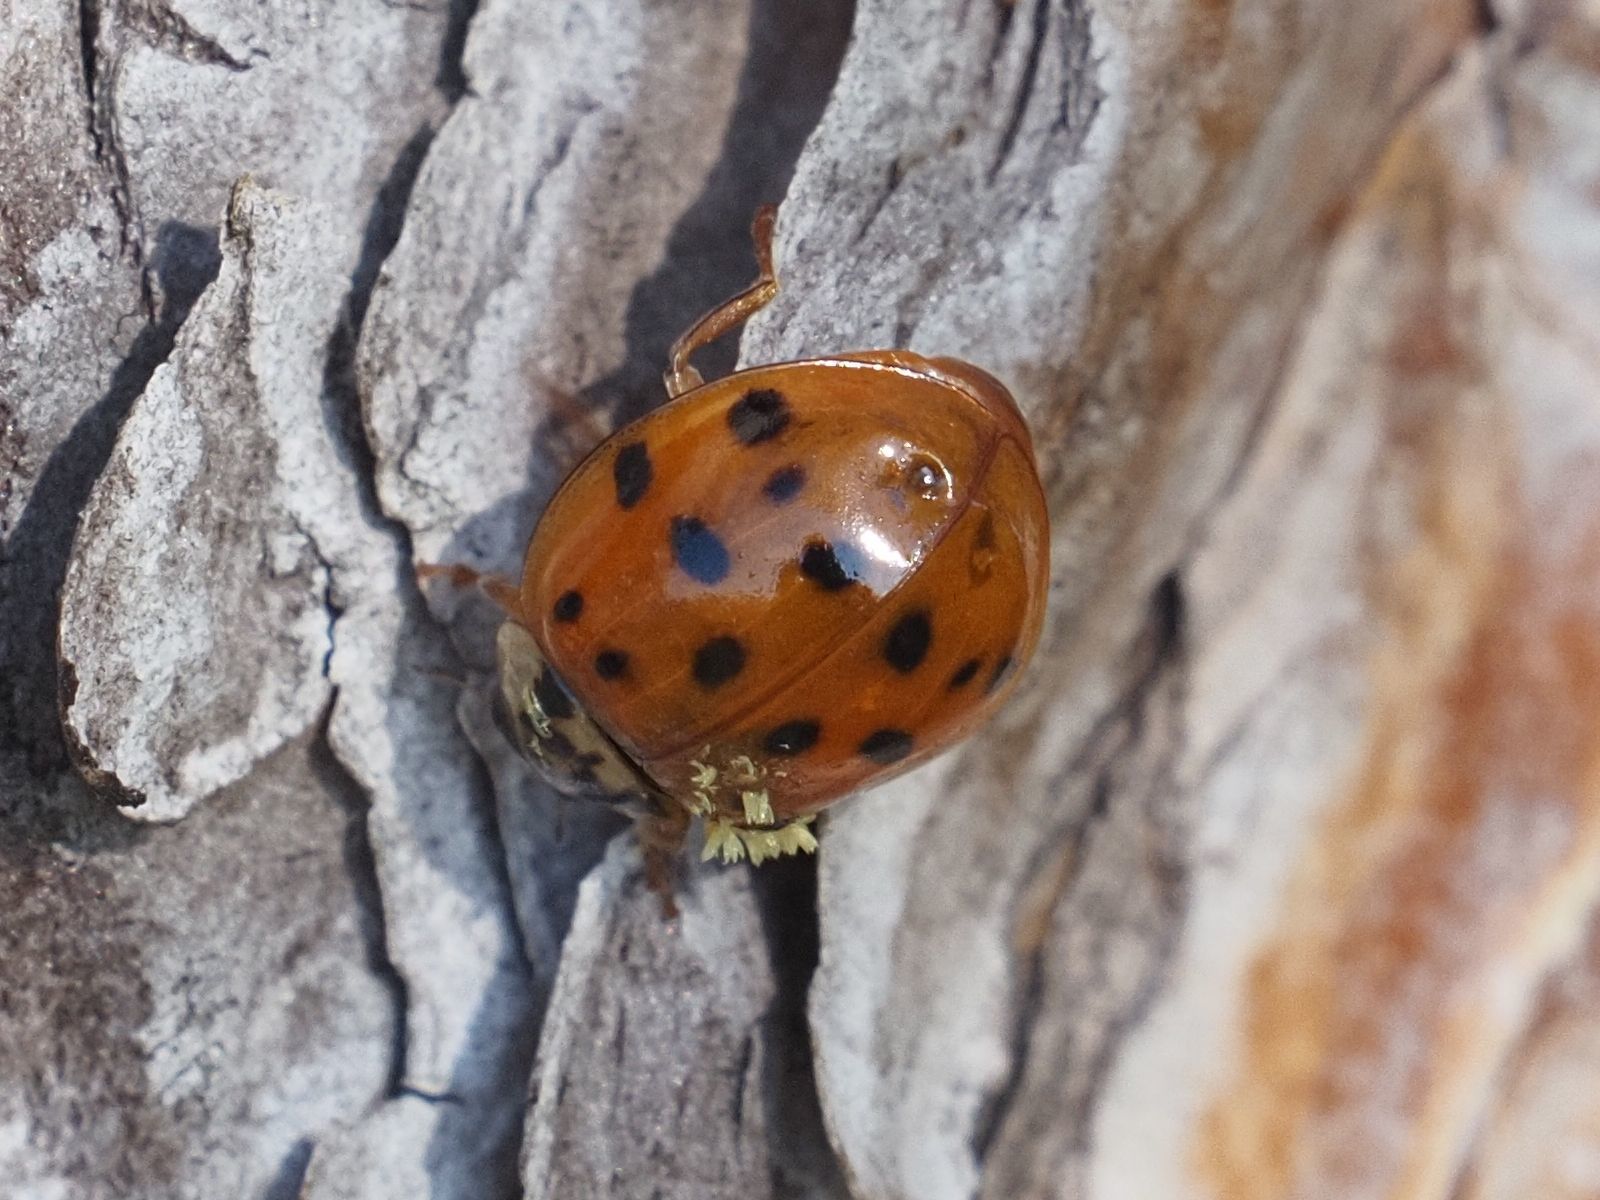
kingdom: Animalia
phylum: Arthropoda
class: Insecta
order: Coleoptera
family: Coccinellidae
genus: Harmonia
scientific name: Harmonia axyridis
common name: Harlequin ladybird
